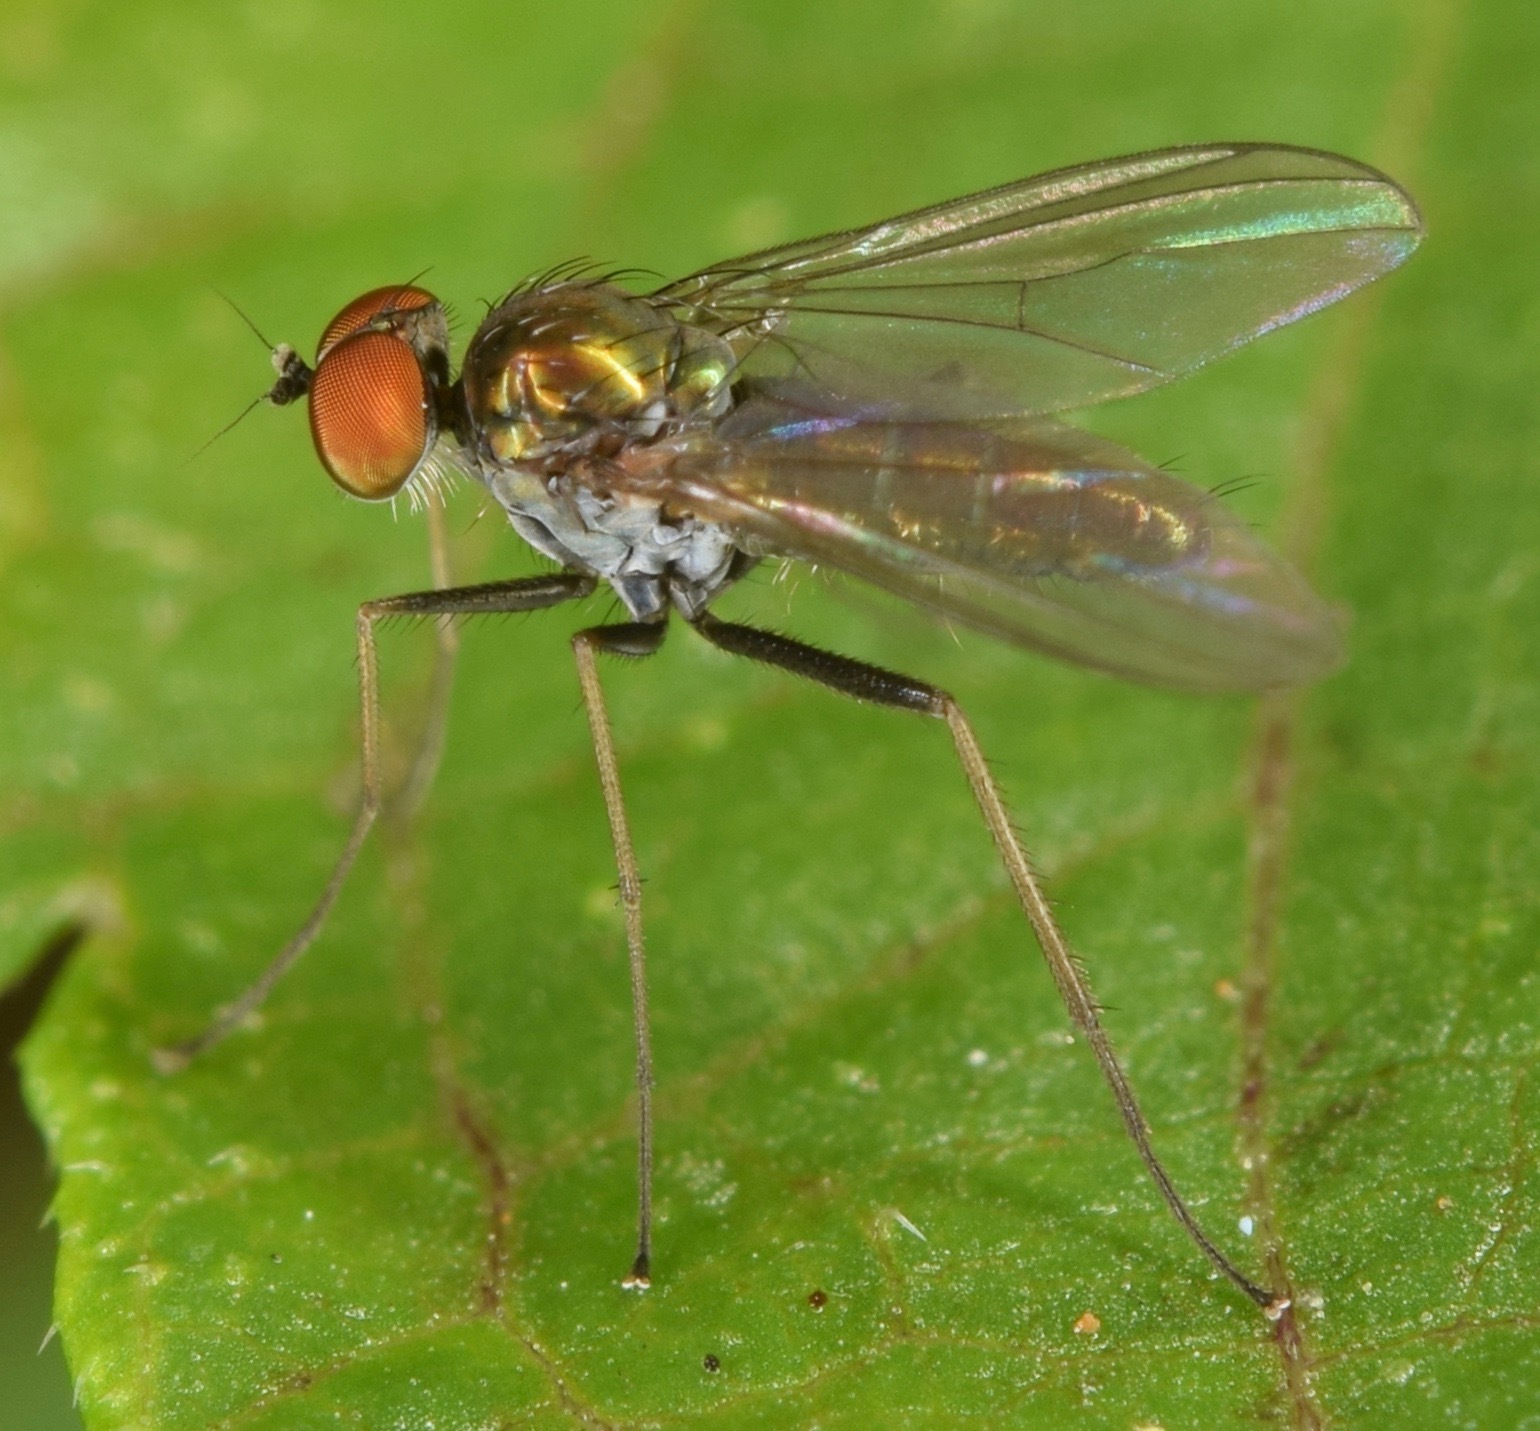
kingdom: Animalia
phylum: Arthropoda
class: Insecta
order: Diptera
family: Dolichopodidae
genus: Chrysotus
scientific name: Chrysotus spectabilis
